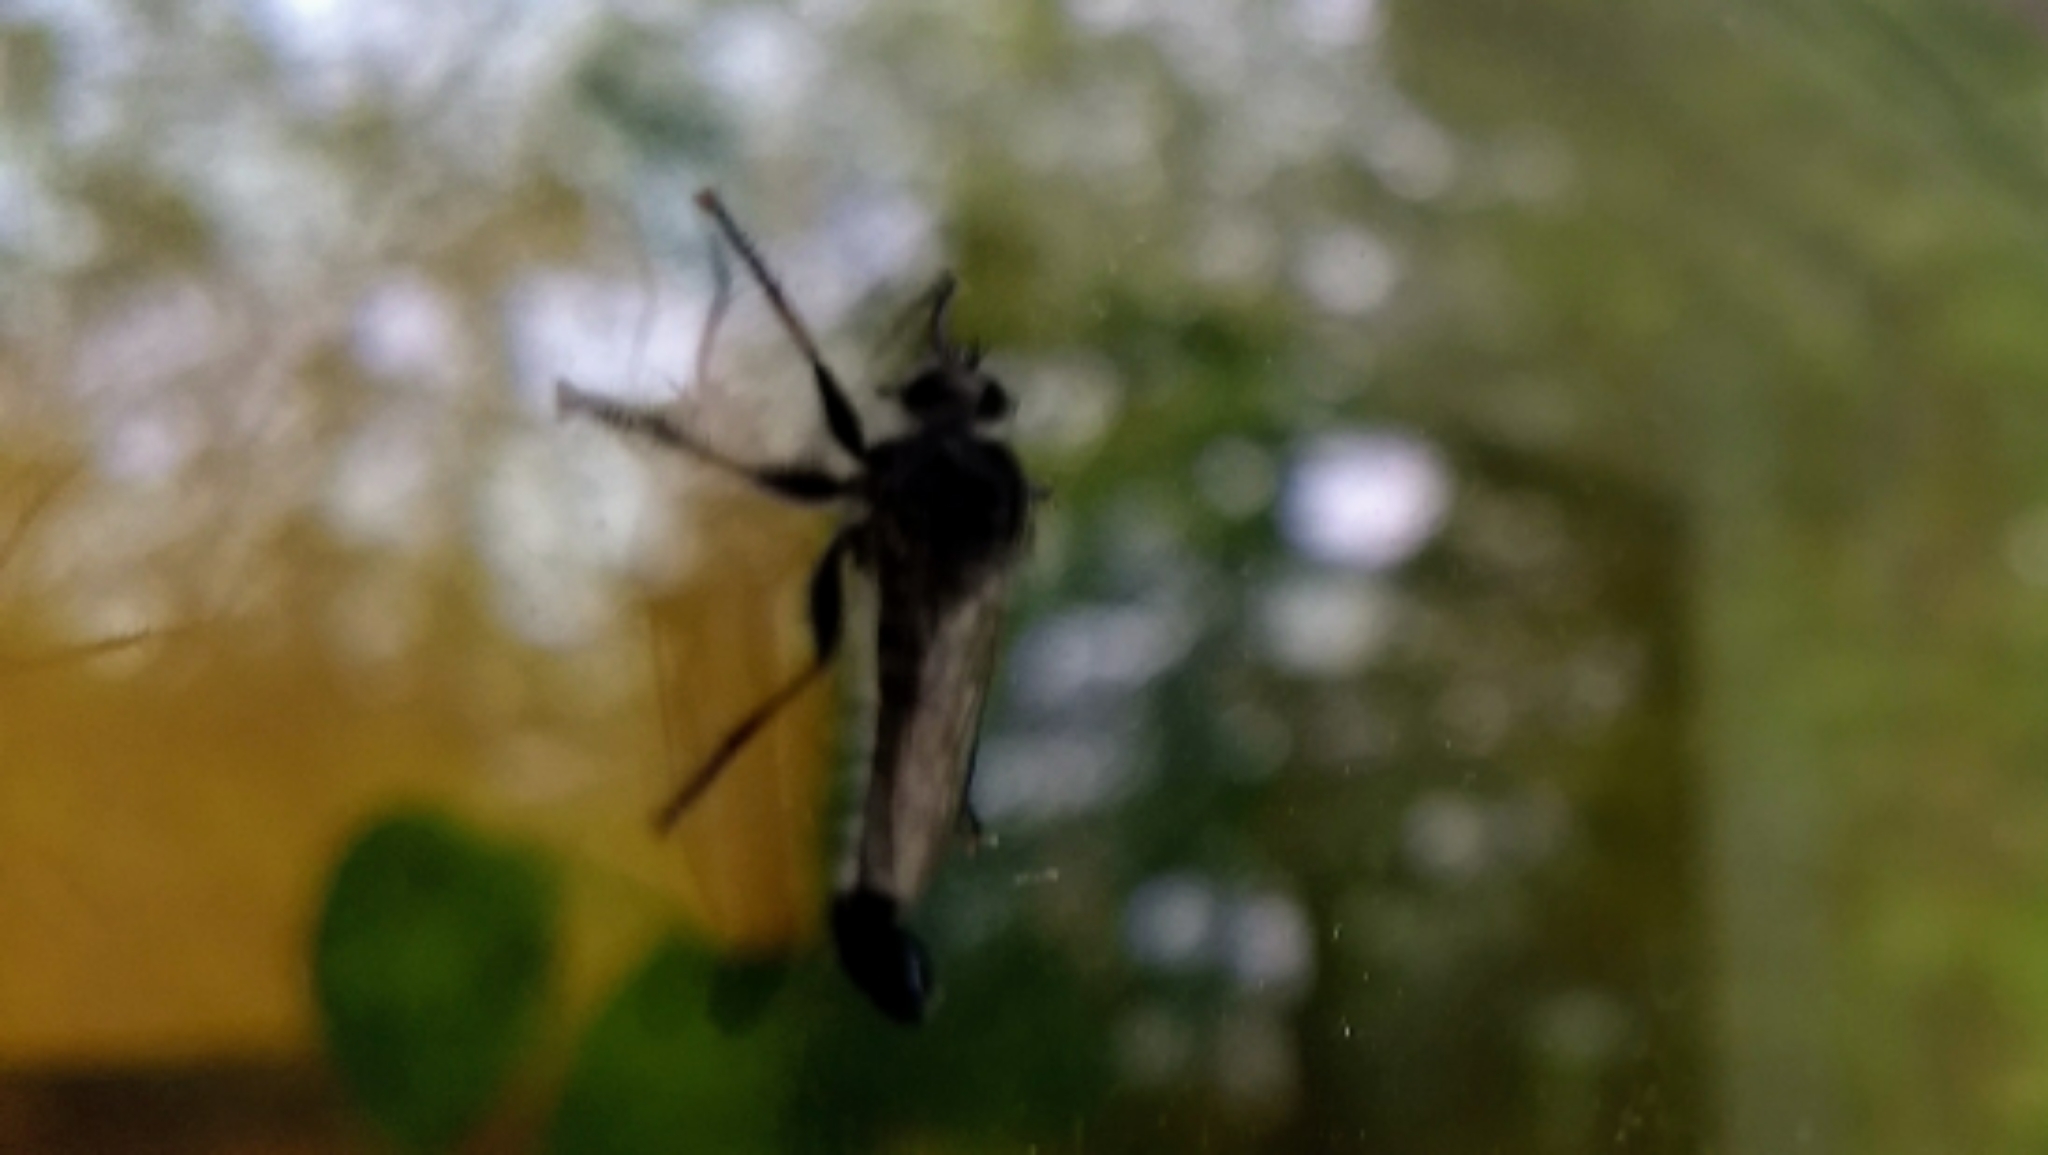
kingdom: Animalia
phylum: Arthropoda
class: Insecta
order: Diptera
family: Asilidae
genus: Efferia
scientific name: Efferia aestuans
